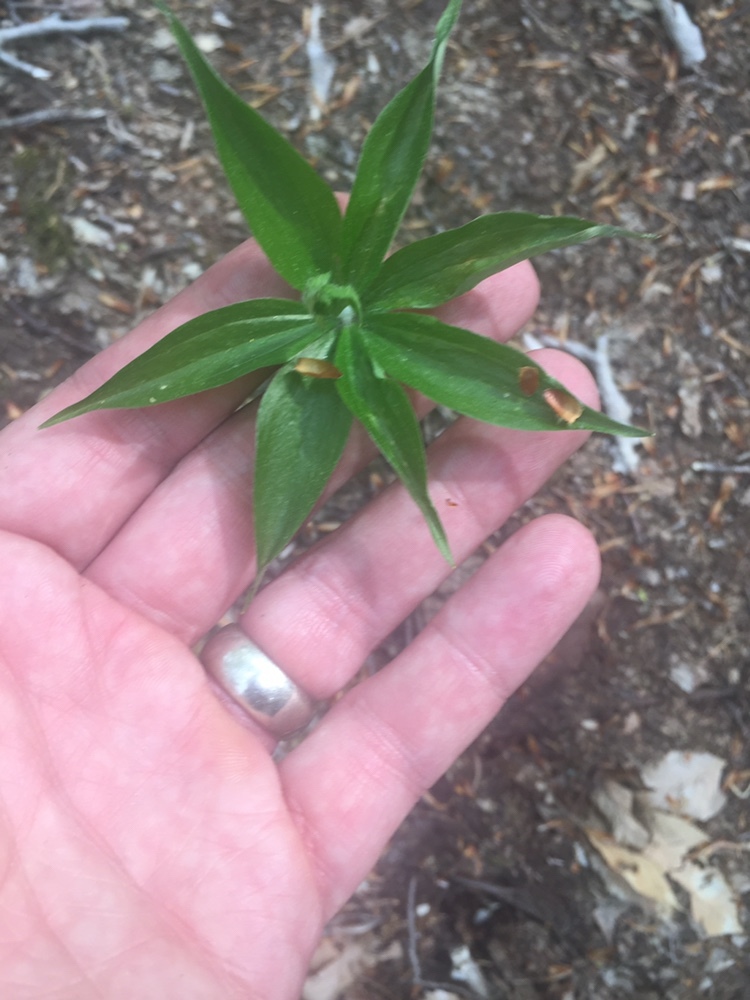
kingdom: Plantae
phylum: Tracheophyta
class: Liliopsida
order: Liliales
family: Liliaceae
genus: Medeola
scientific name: Medeola virginiana
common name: Indian cucumber-root
